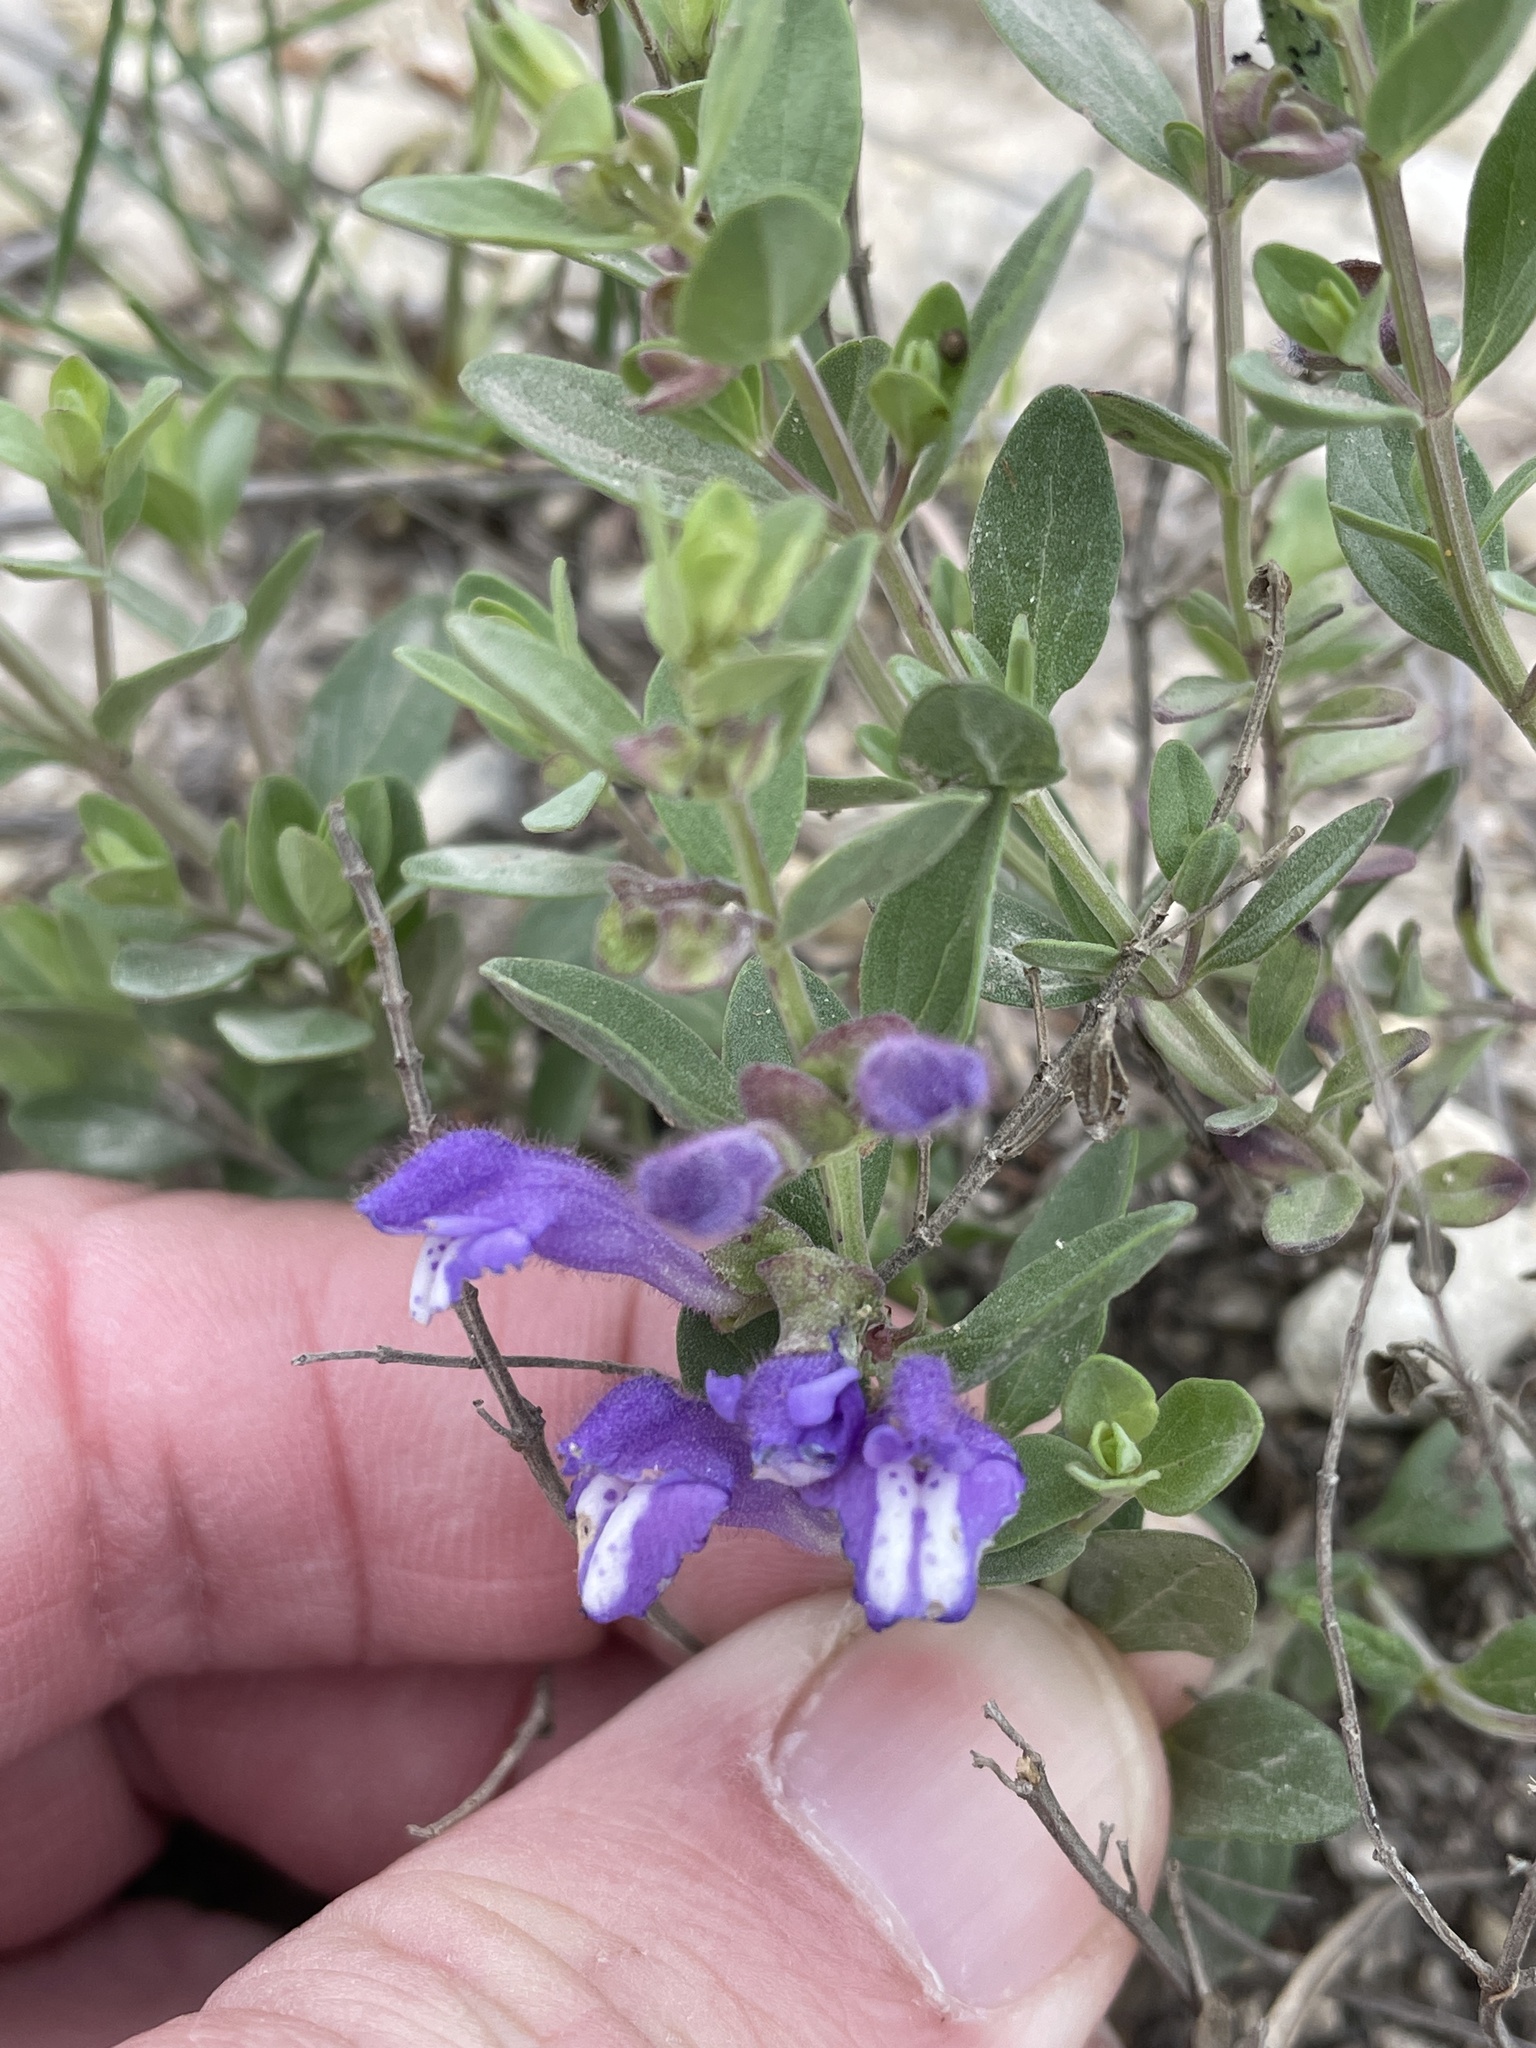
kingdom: Plantae
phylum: Tracheophyta
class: Magnoliopsida
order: Lamiales
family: Lamiaceae
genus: Scutellaria
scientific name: Scutellaria wrightii
